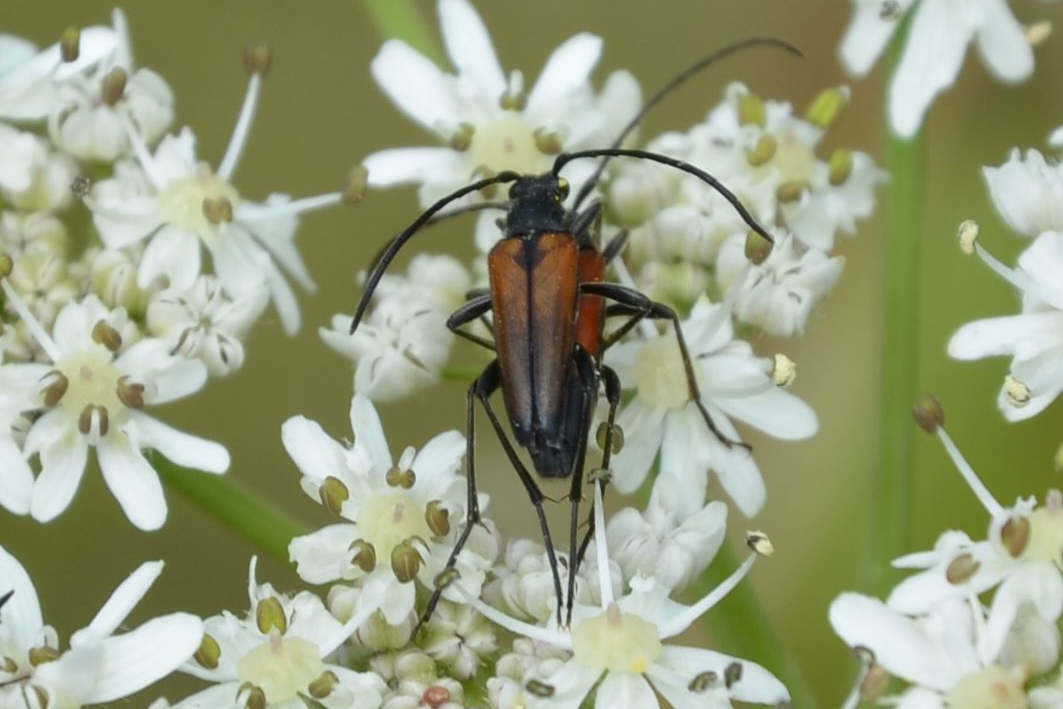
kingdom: Animalia
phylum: Arthropoda
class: Insecta
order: Coleoptera
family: Cerambycidae
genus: Stenurella
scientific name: Stenurella melanura
